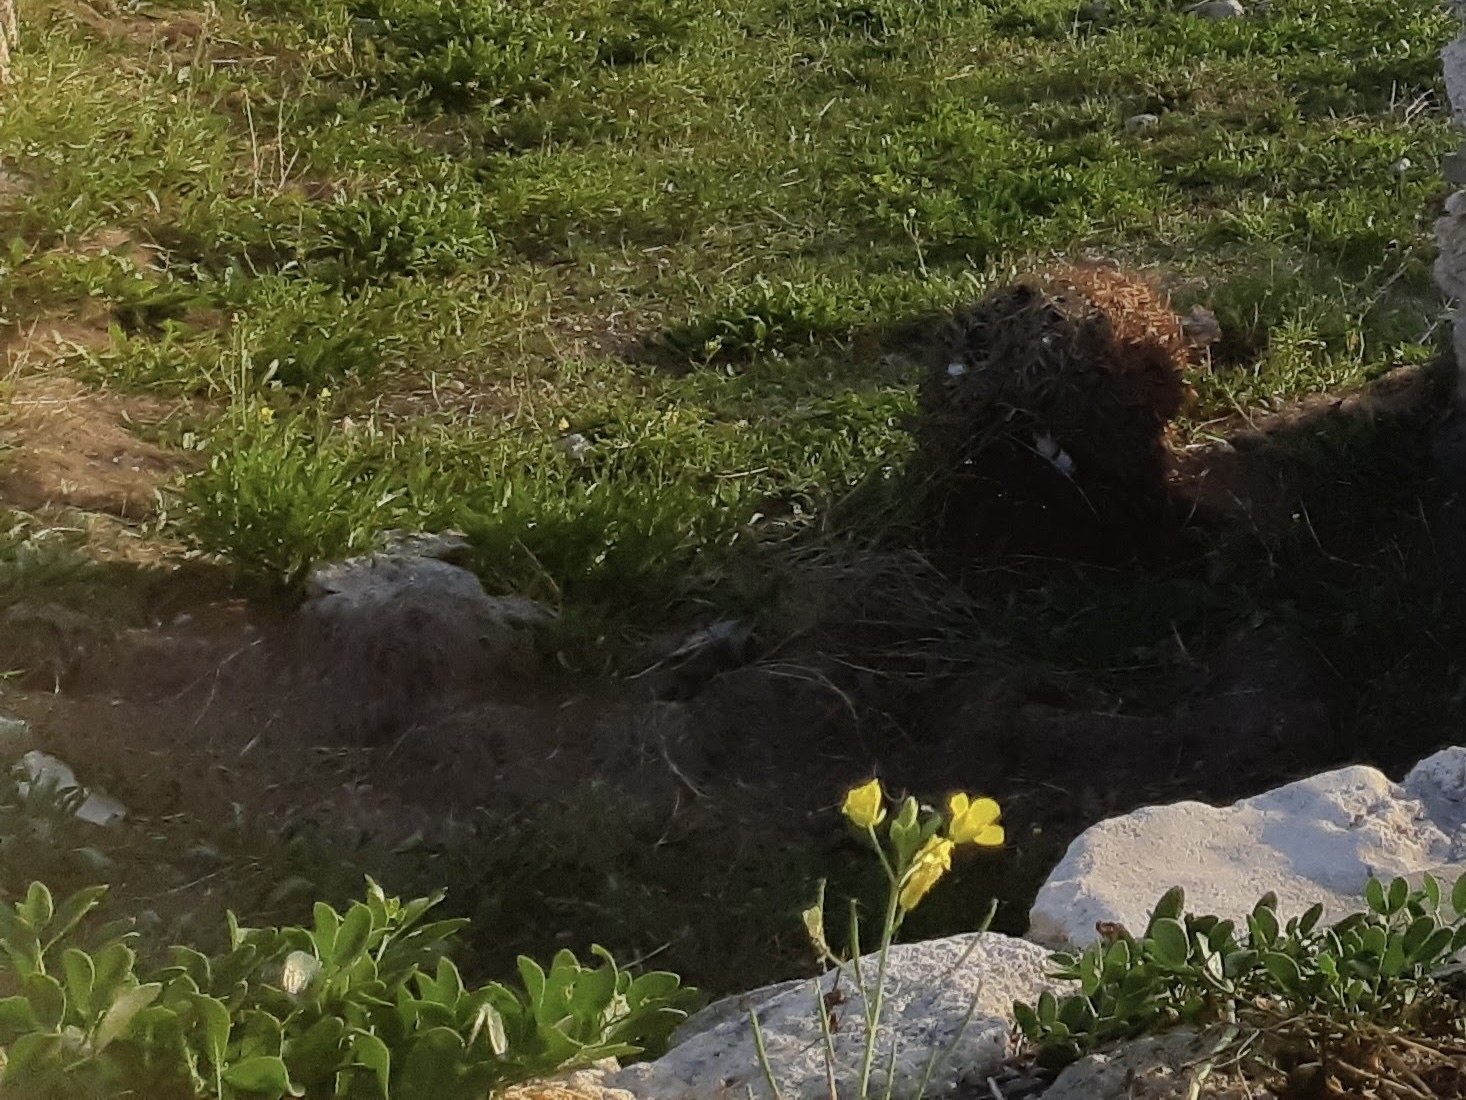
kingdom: Plantae
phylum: Tracheophyta
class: Magnoliopsida
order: Zygophyllales
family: Zygophyllaceae
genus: Zygophyllum
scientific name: Zygophyllum fabago
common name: Syrian beancaper
